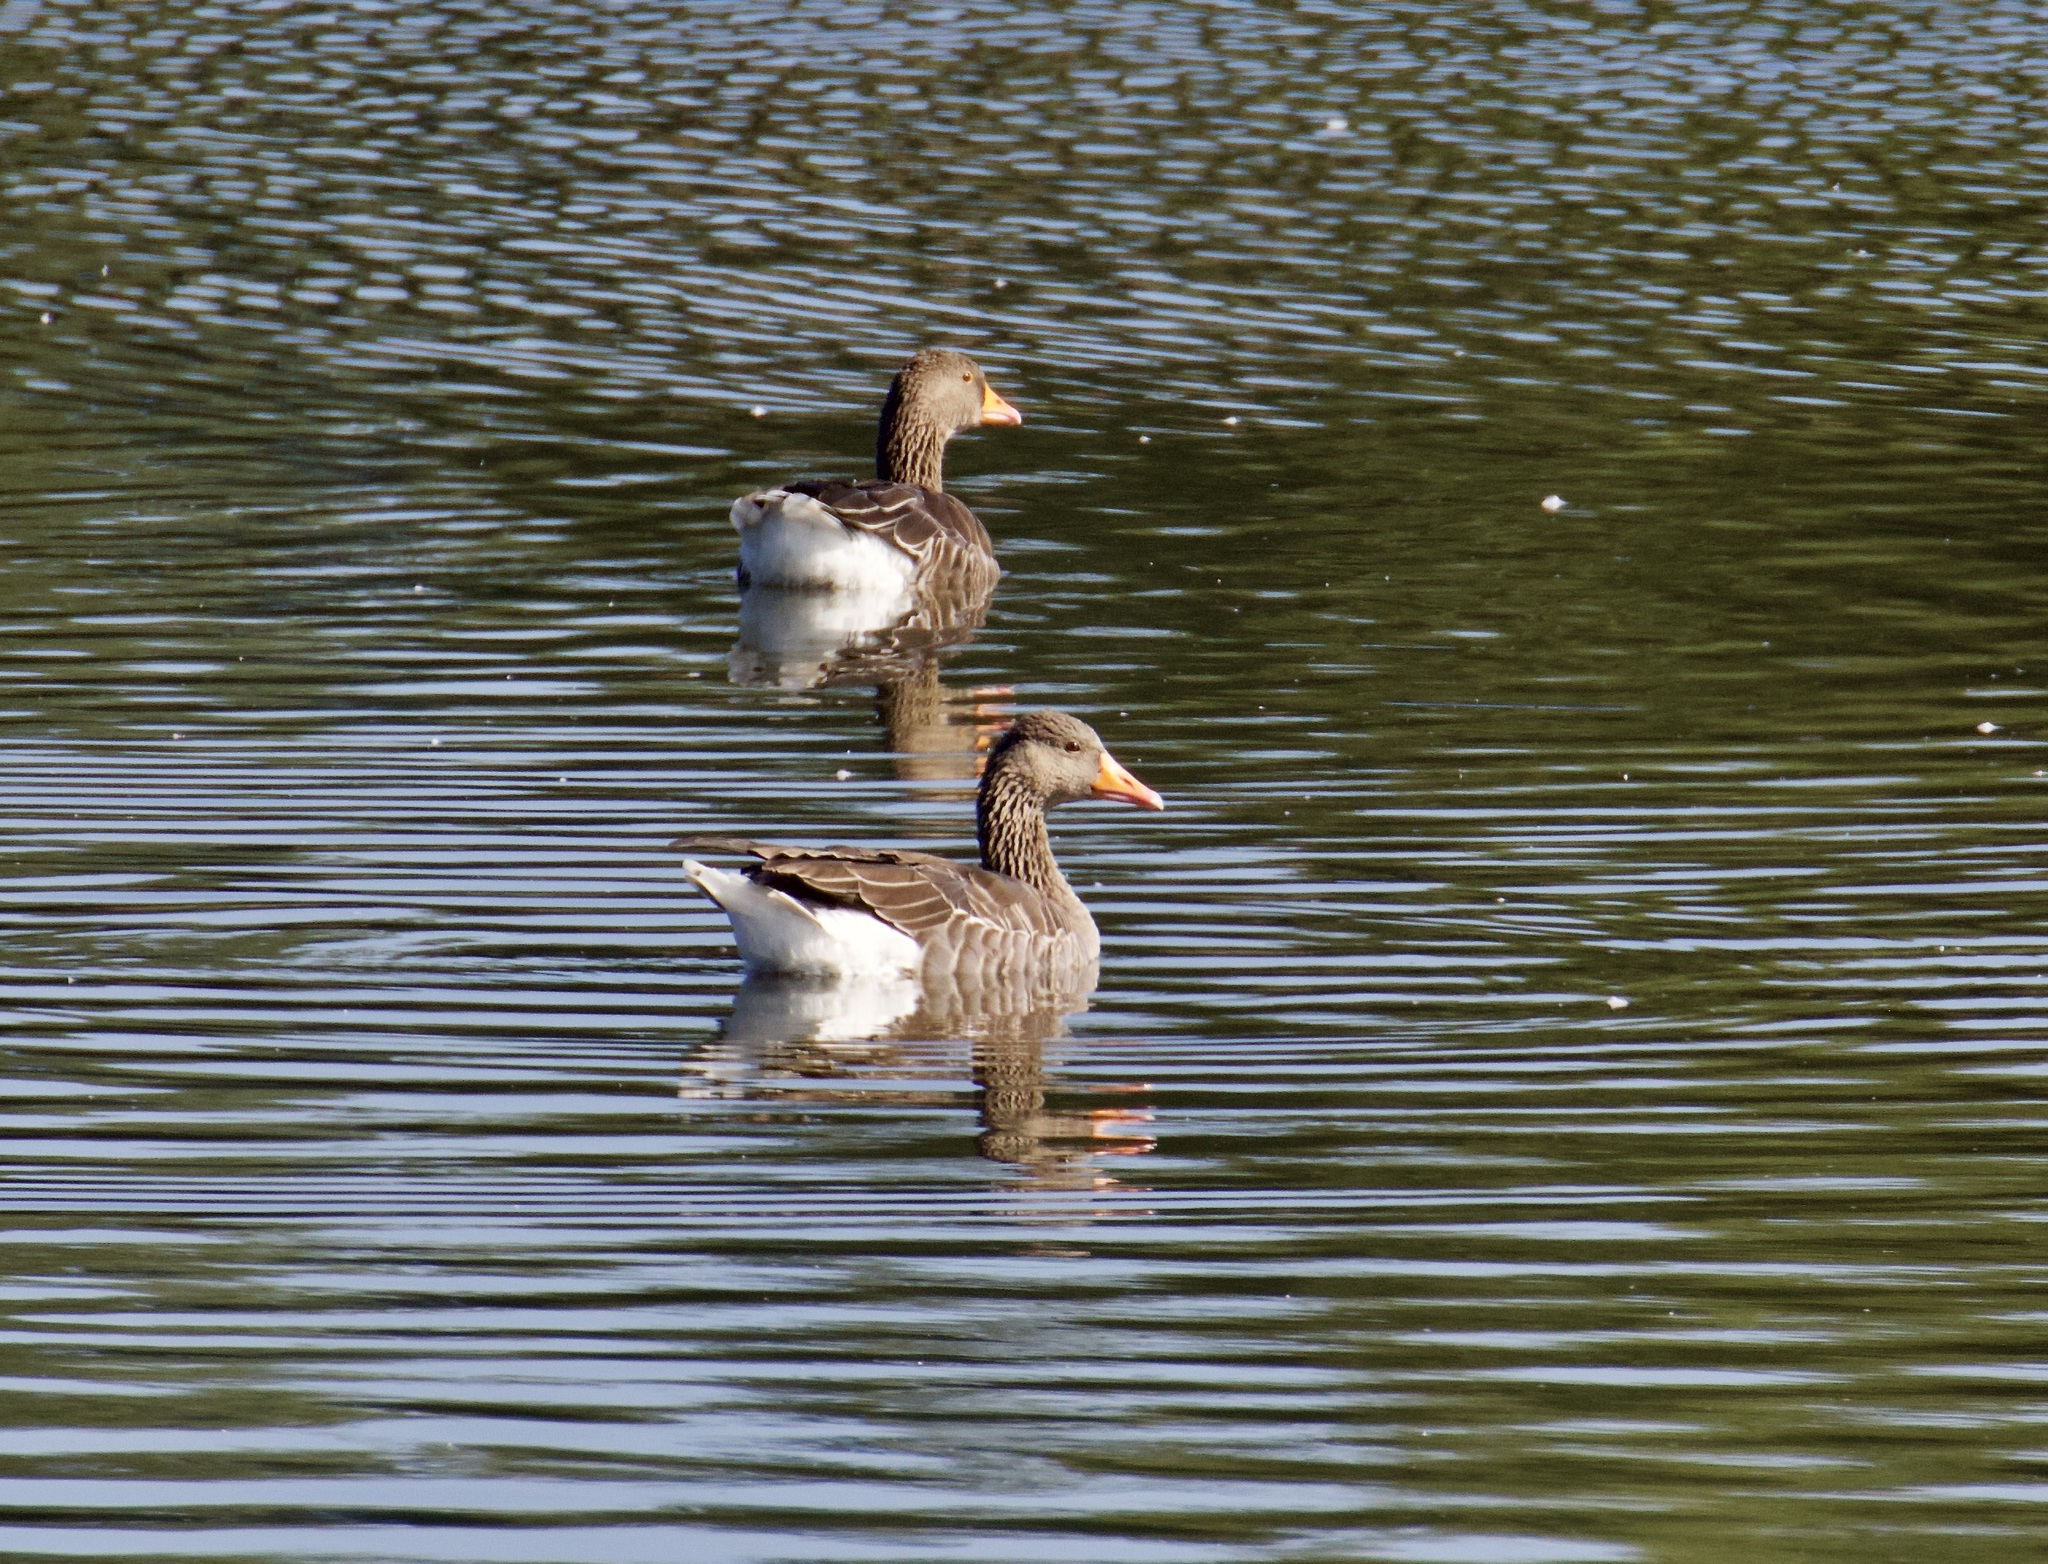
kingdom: Animalia
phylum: Chordata
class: Aves
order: Anseriformes
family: Anatidae
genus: Anser
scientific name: Anser anser
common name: Greylag goose
